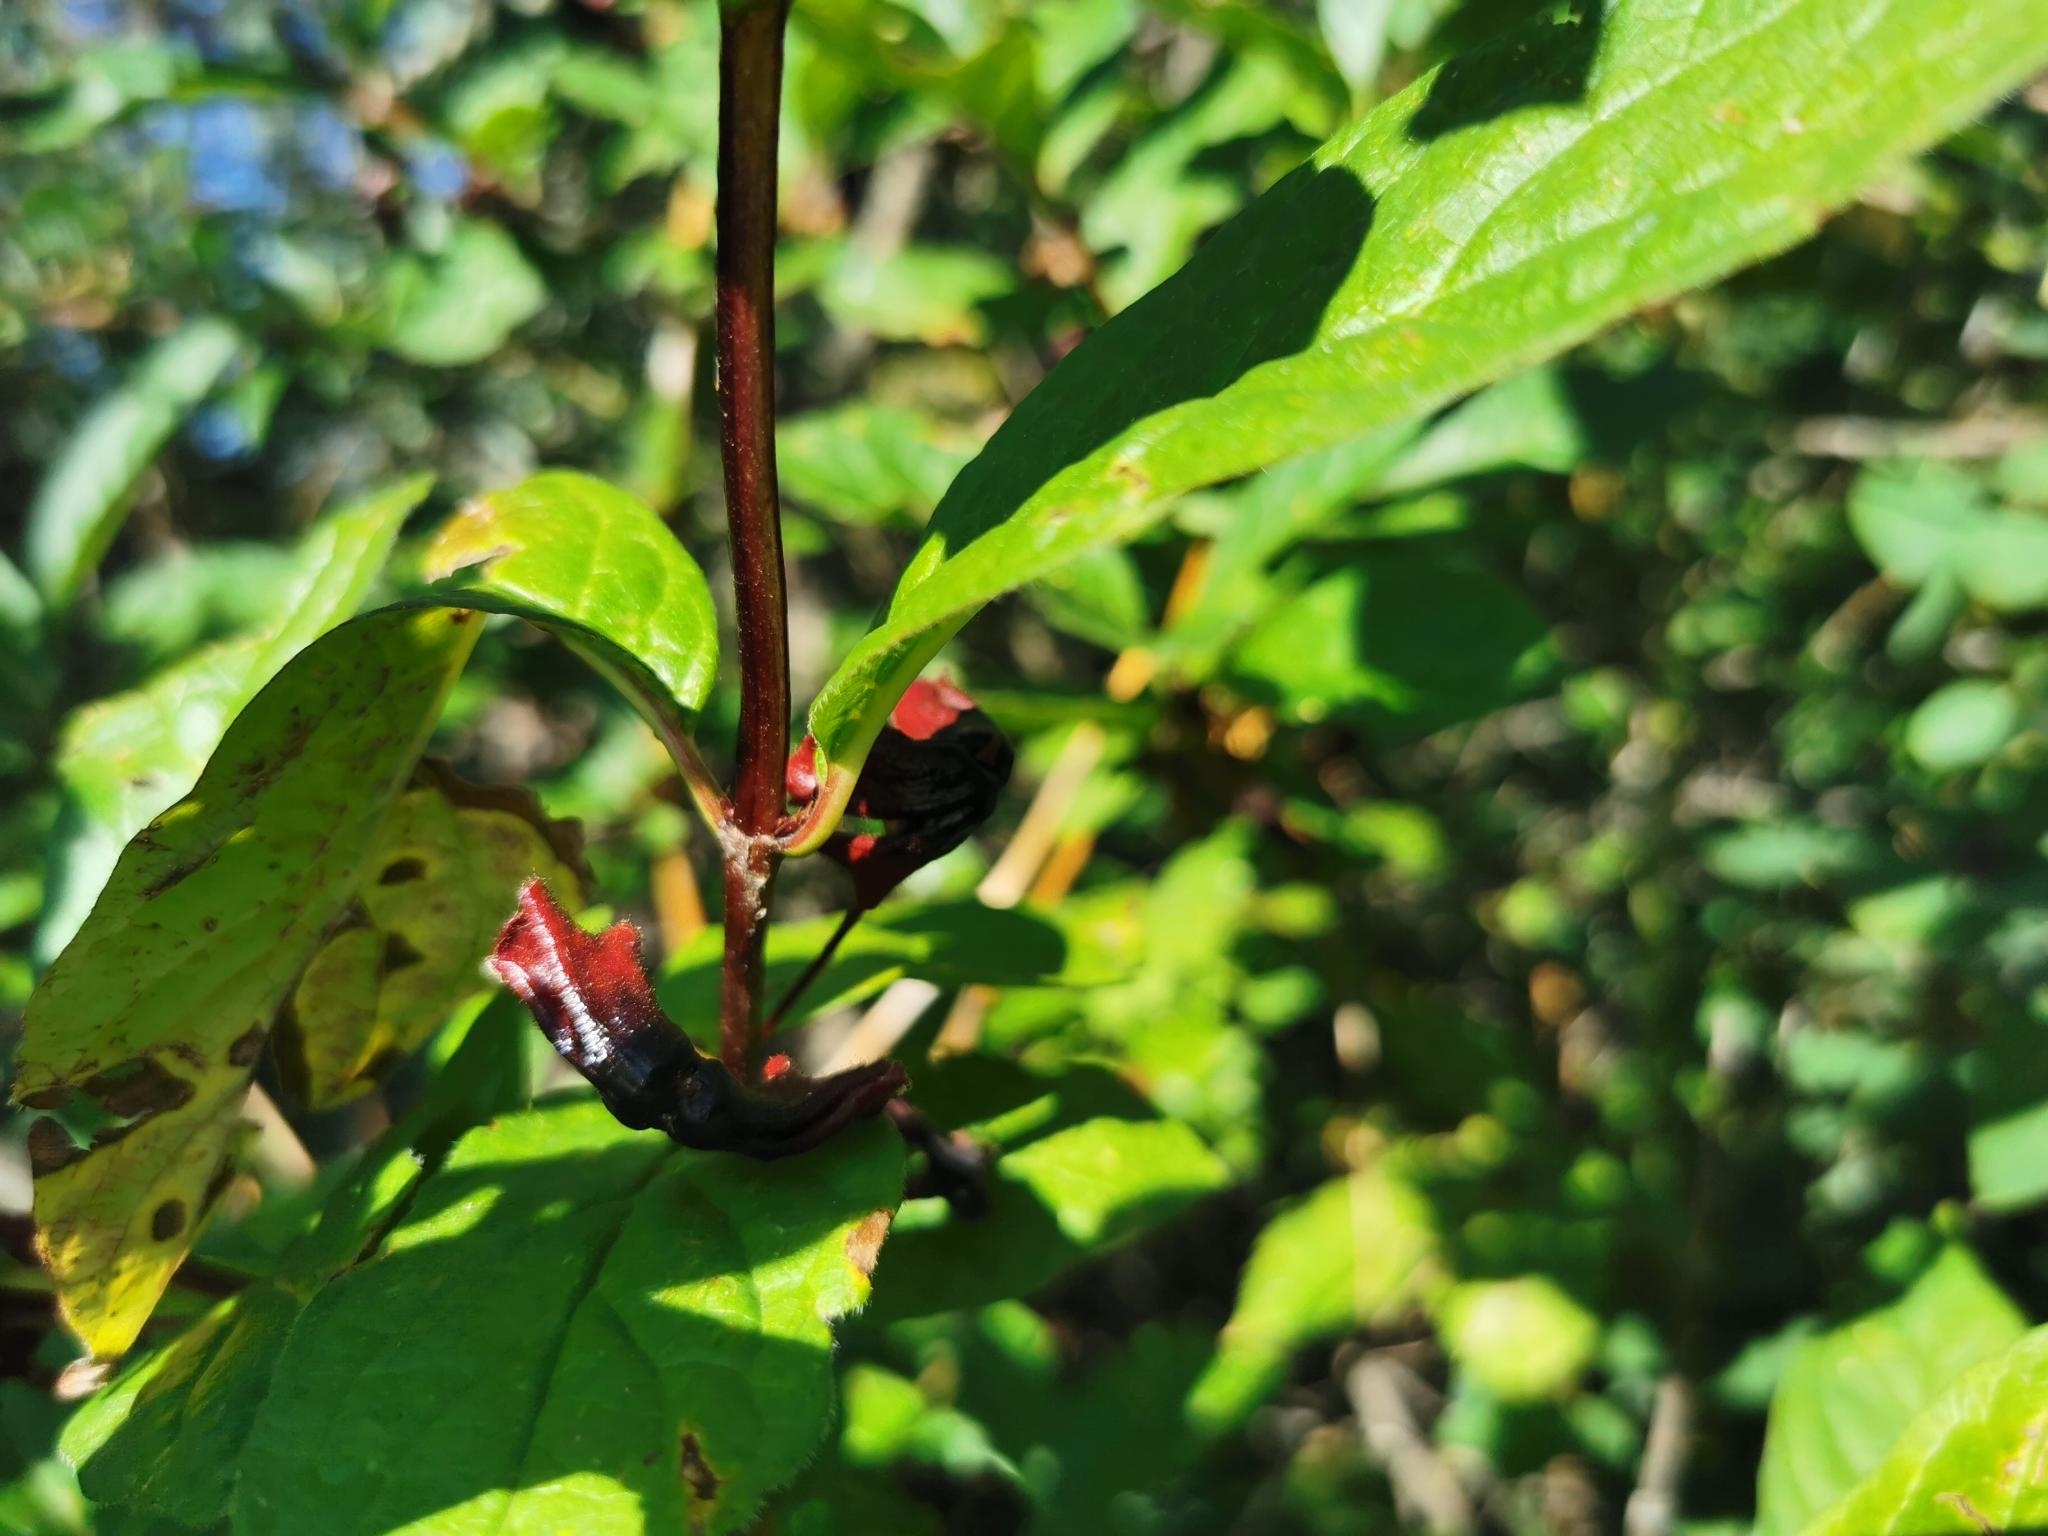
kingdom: Plantae
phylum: Tracheophyta
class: Magnoliopsida
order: Dipsacales
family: Caprifoliaceae
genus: Lonicera
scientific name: Lonicera involucrata
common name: Californian honeysuckle
